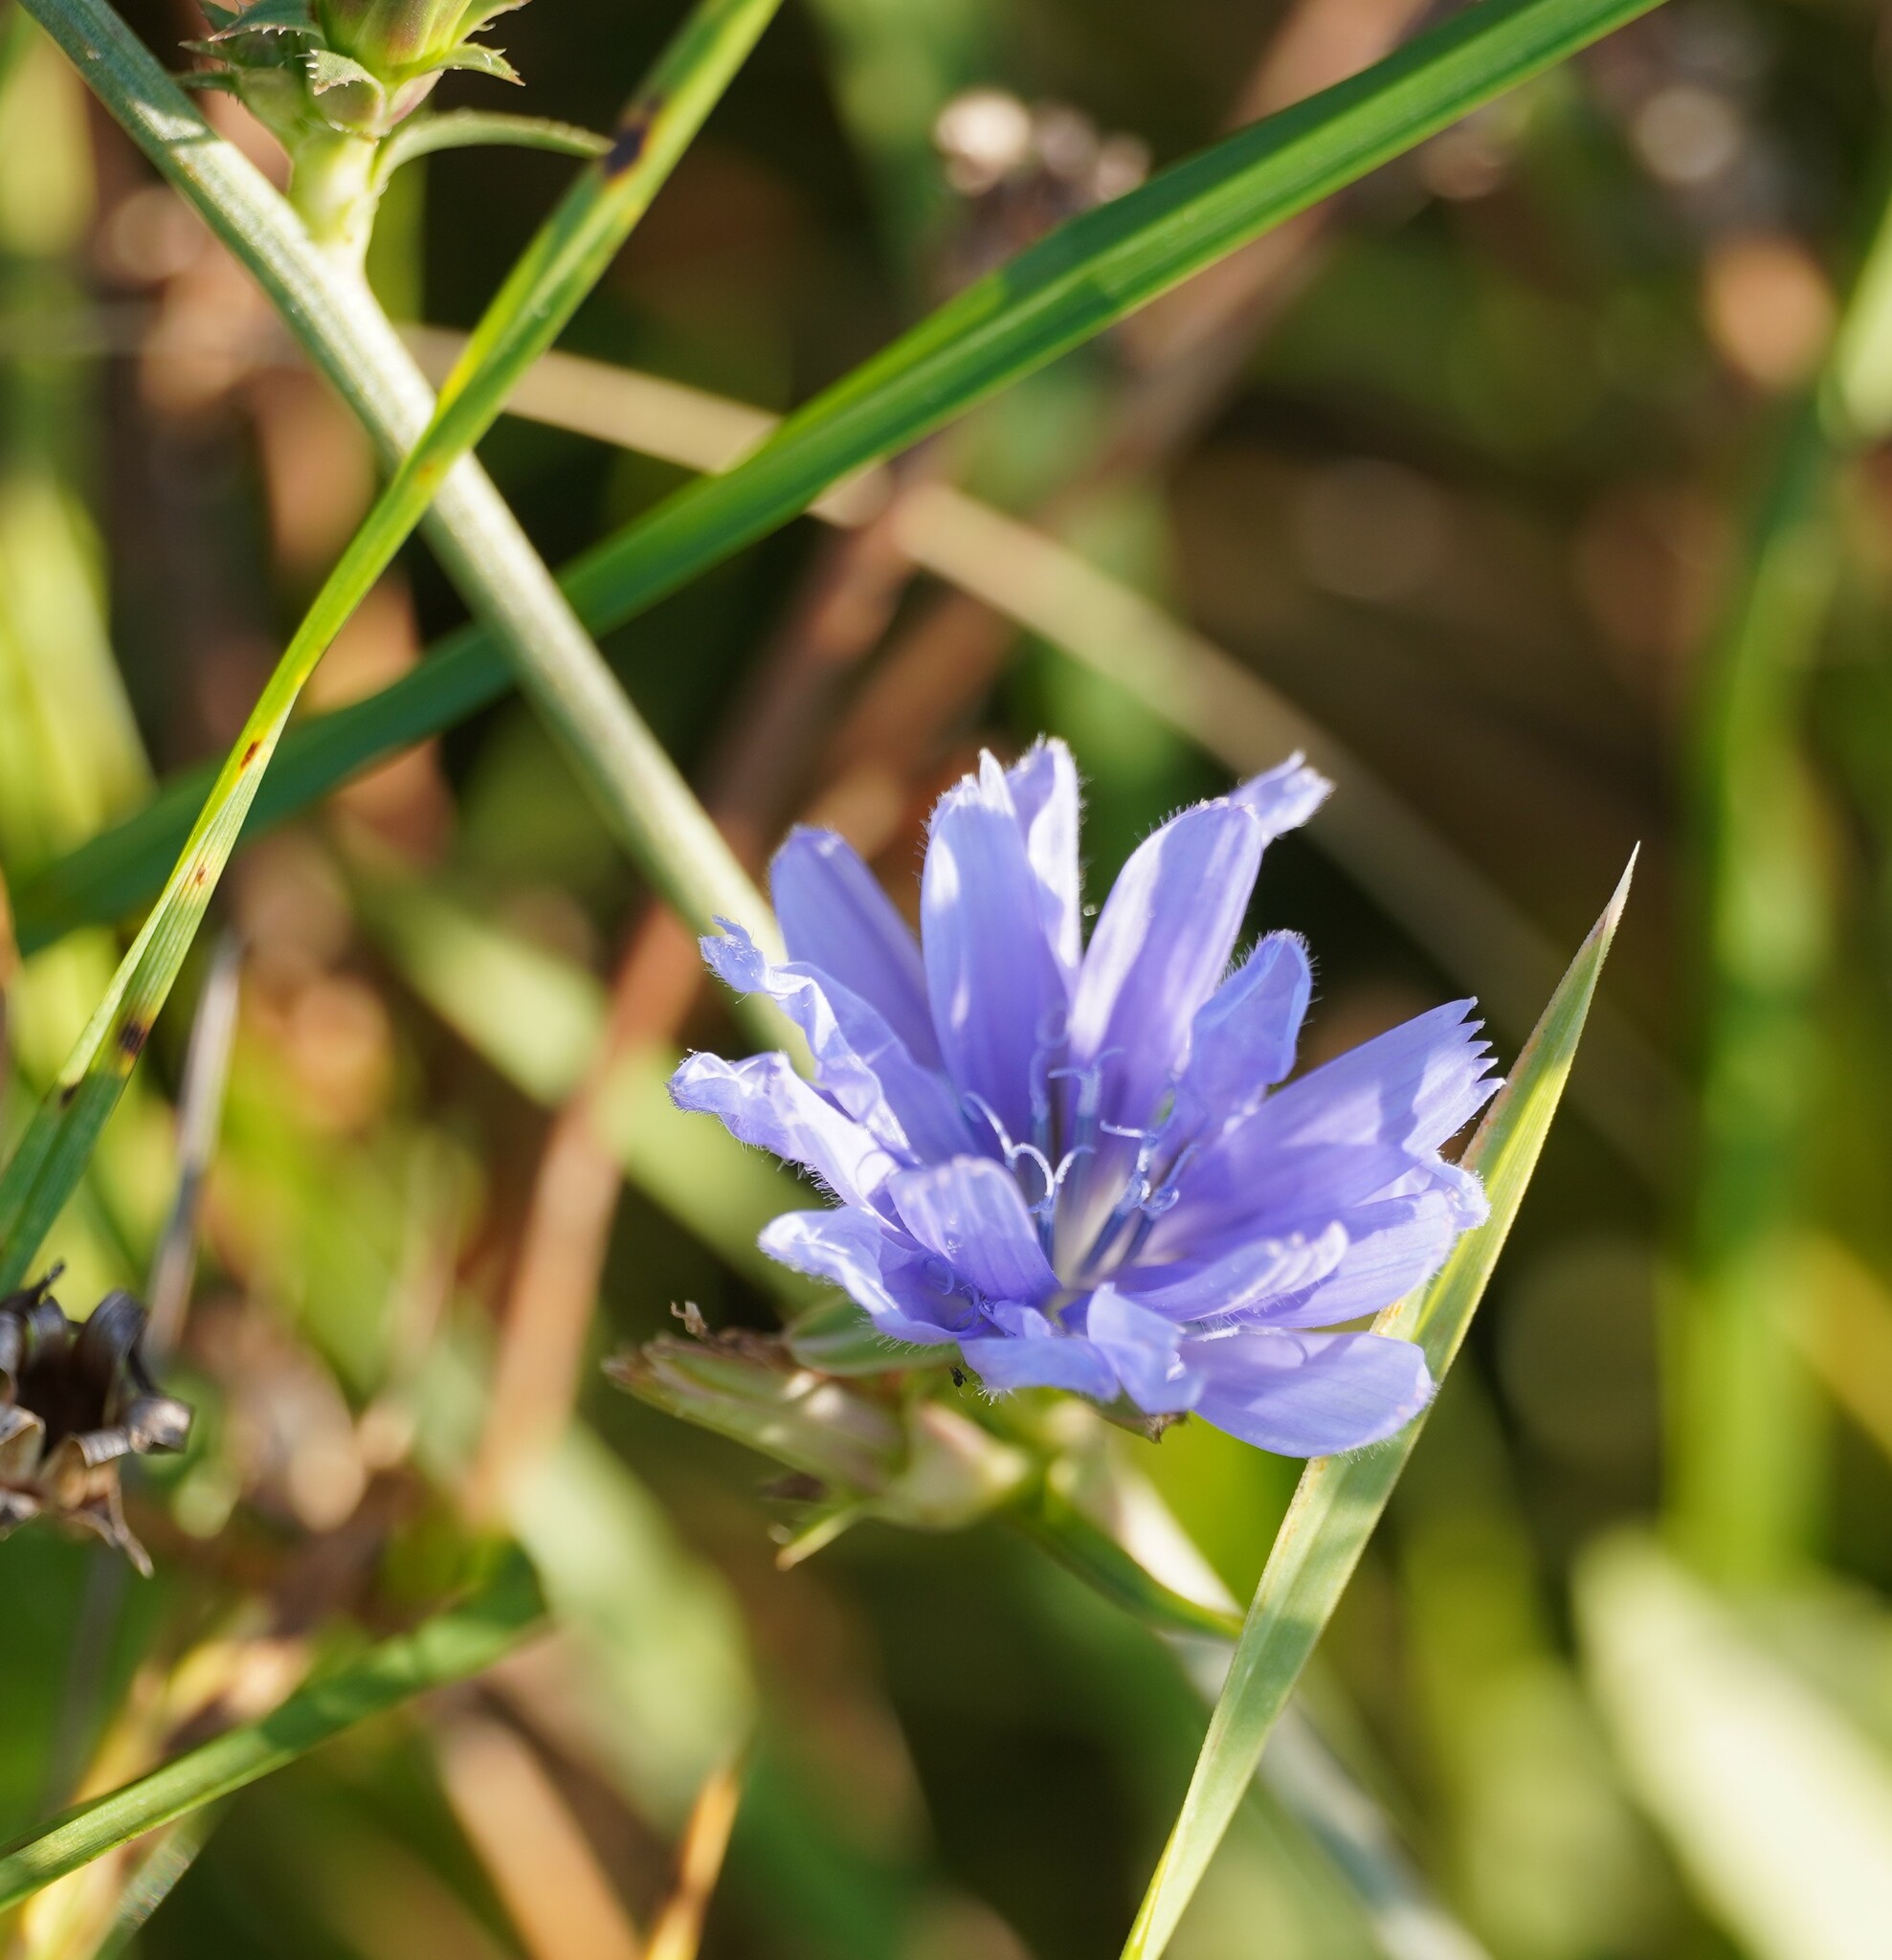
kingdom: Plantae
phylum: Tracheophyta
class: Magnoliopsida
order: Asterales
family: Asteraceae
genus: Cichorium
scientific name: Cichorium intybus
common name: Chicory
